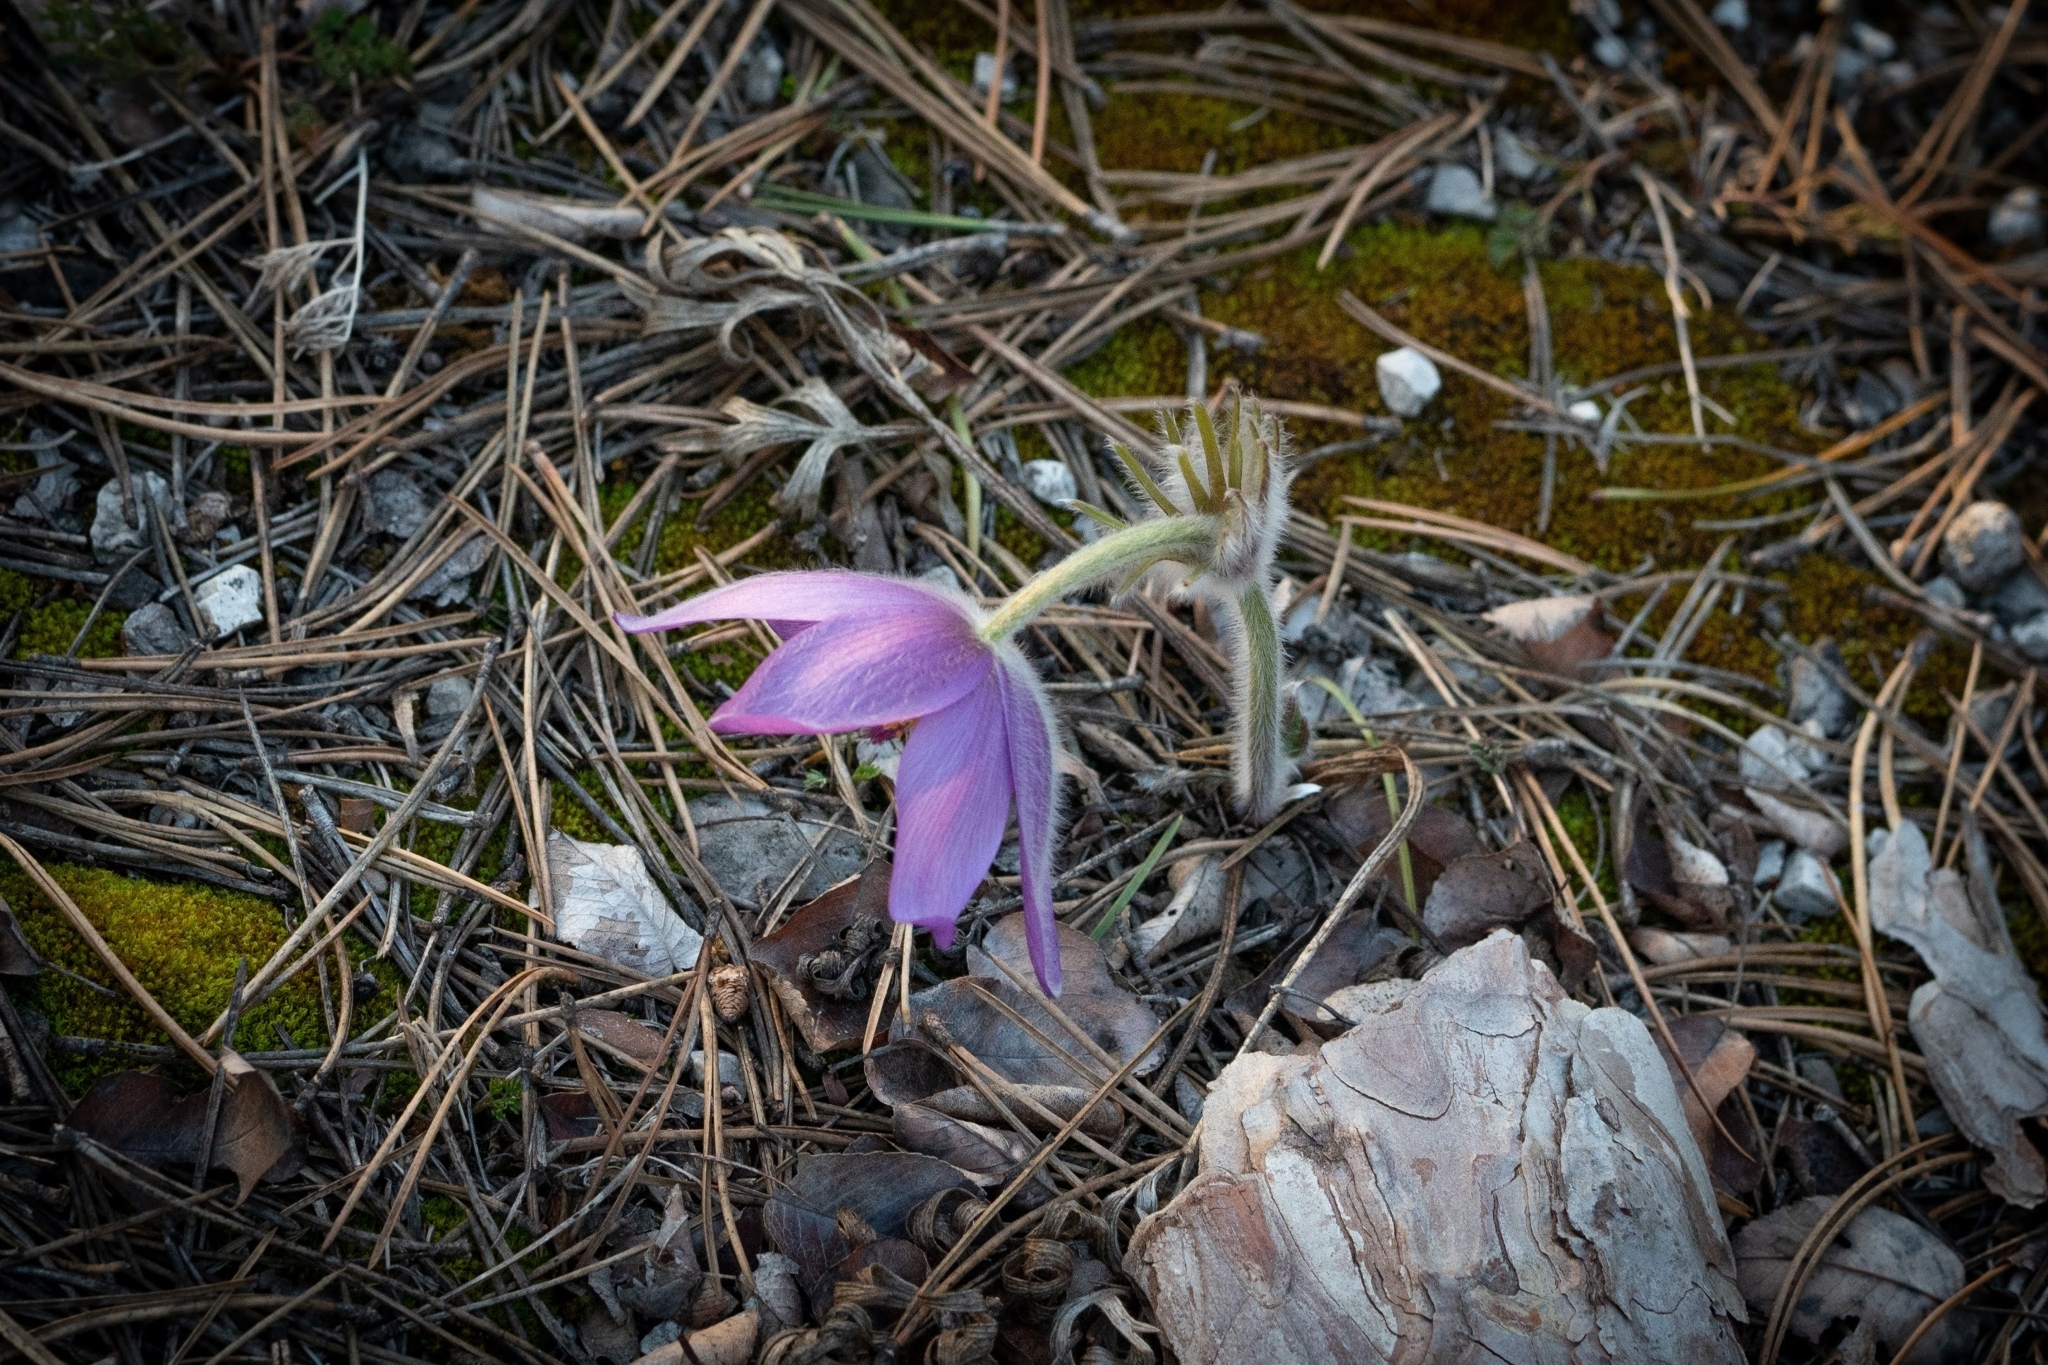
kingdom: Plantae
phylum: Tracheophyta
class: Magnoliopsida
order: Ranunculales
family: Ranunculaceae
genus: Pulsatilla
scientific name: Pulsatilla grandis
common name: Greater pasque flower
